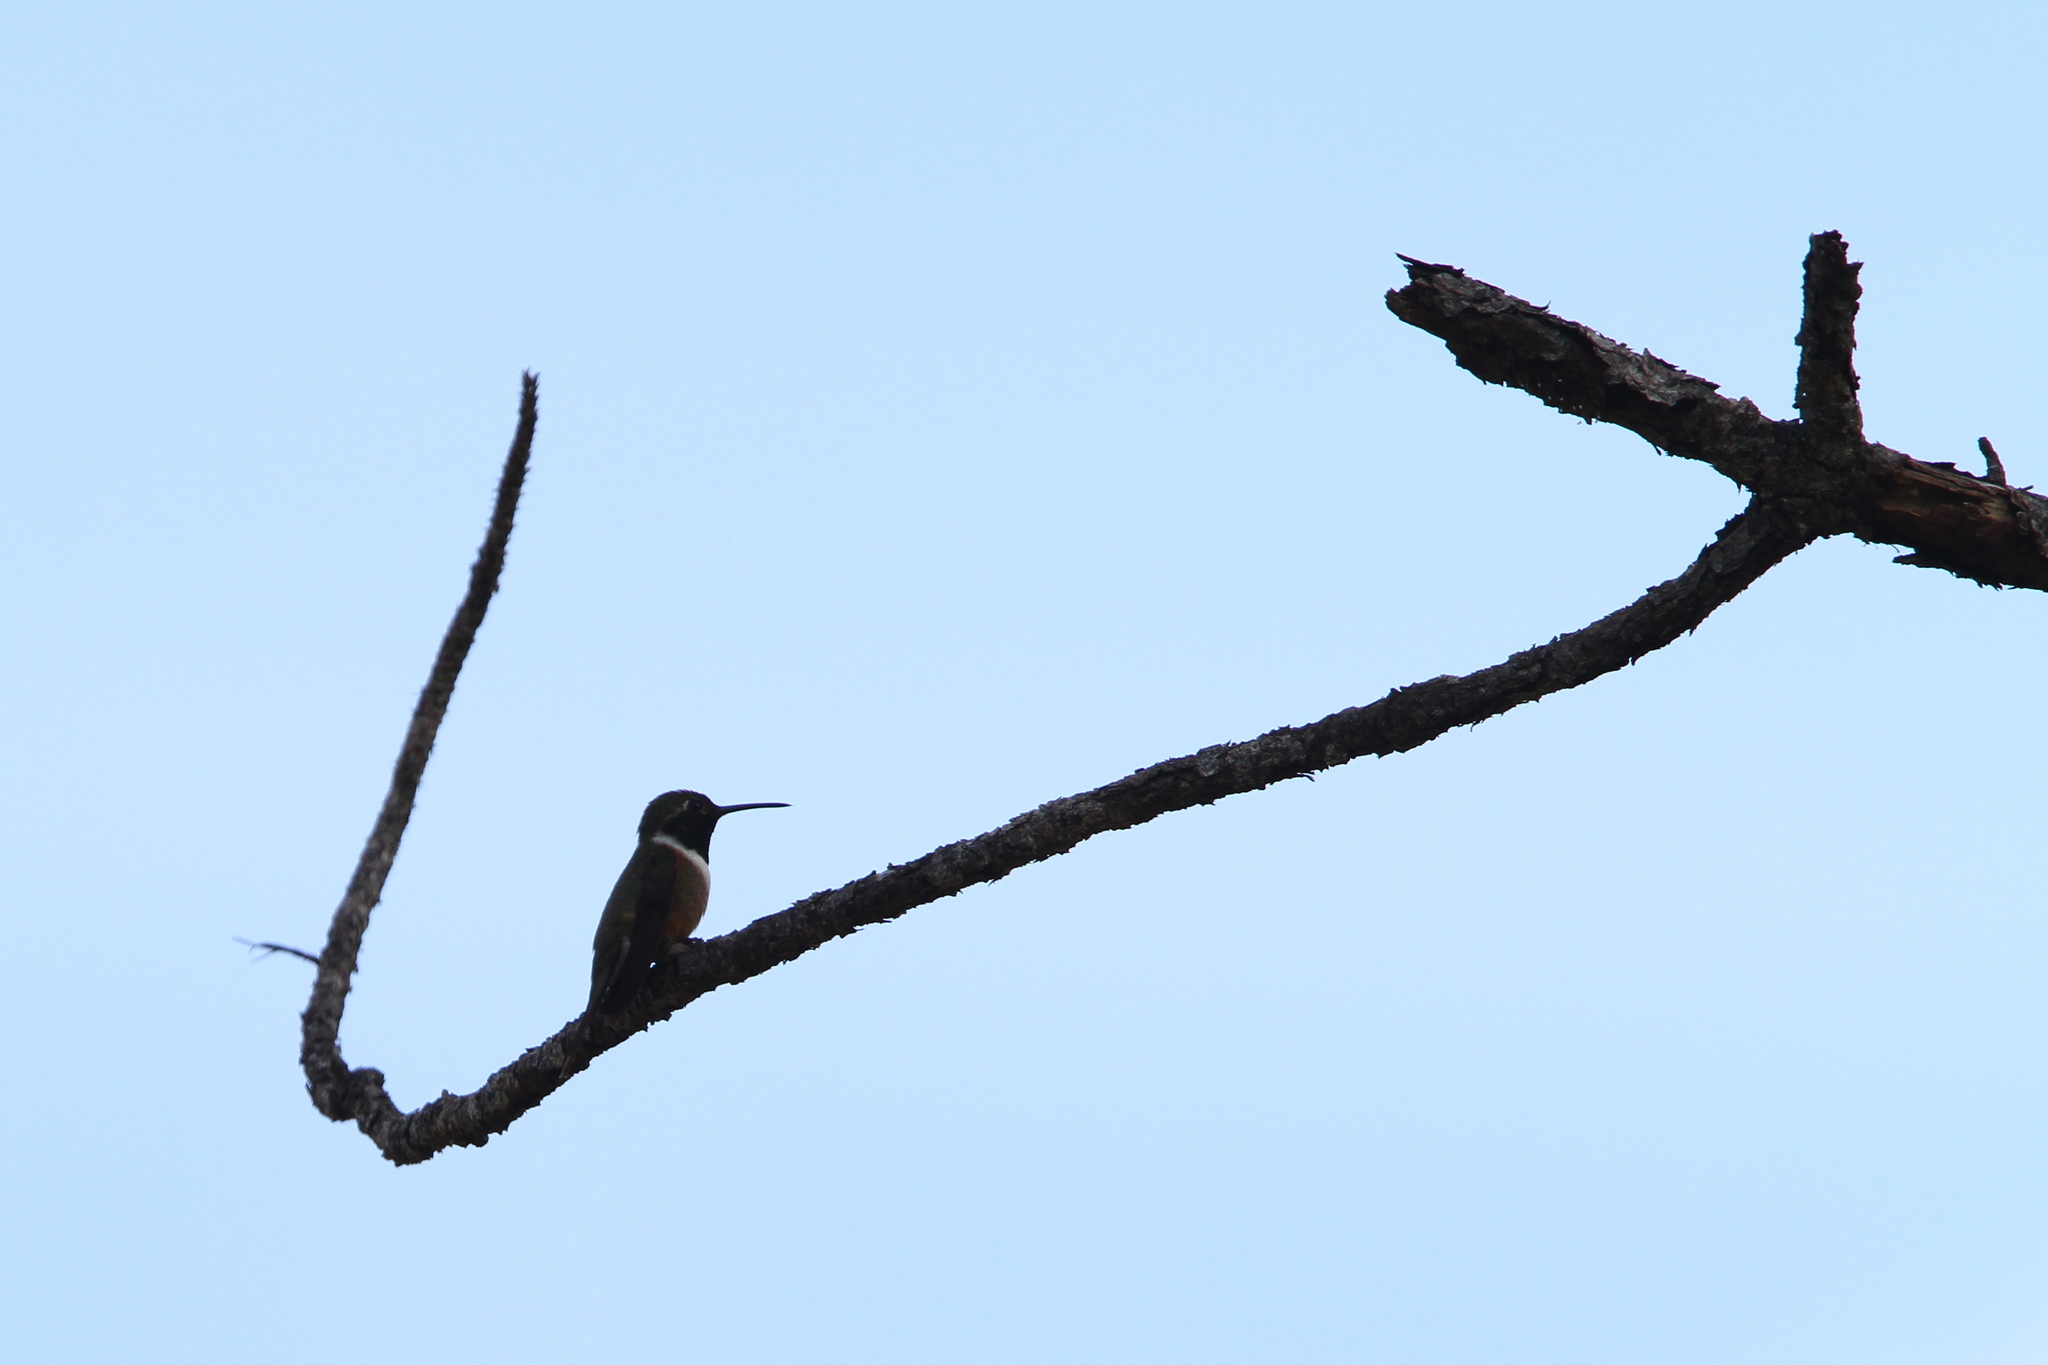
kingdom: Animalia
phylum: Chordata
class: Aves
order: Apodiformes
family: Trochilidae
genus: Nesophlox
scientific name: Nesophlox evelynae
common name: Bahama woodstar
